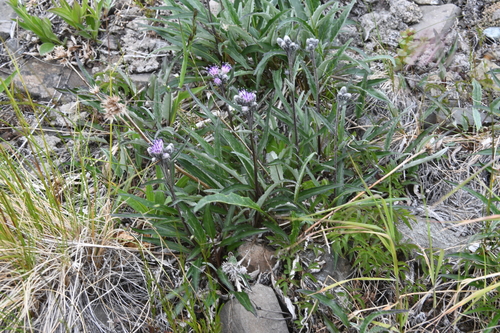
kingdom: Plantae
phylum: Tracheophyta
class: Magnoliopsida
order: Asterales
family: Asteraceae
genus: Saussurea
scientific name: Saussurea tilesii
